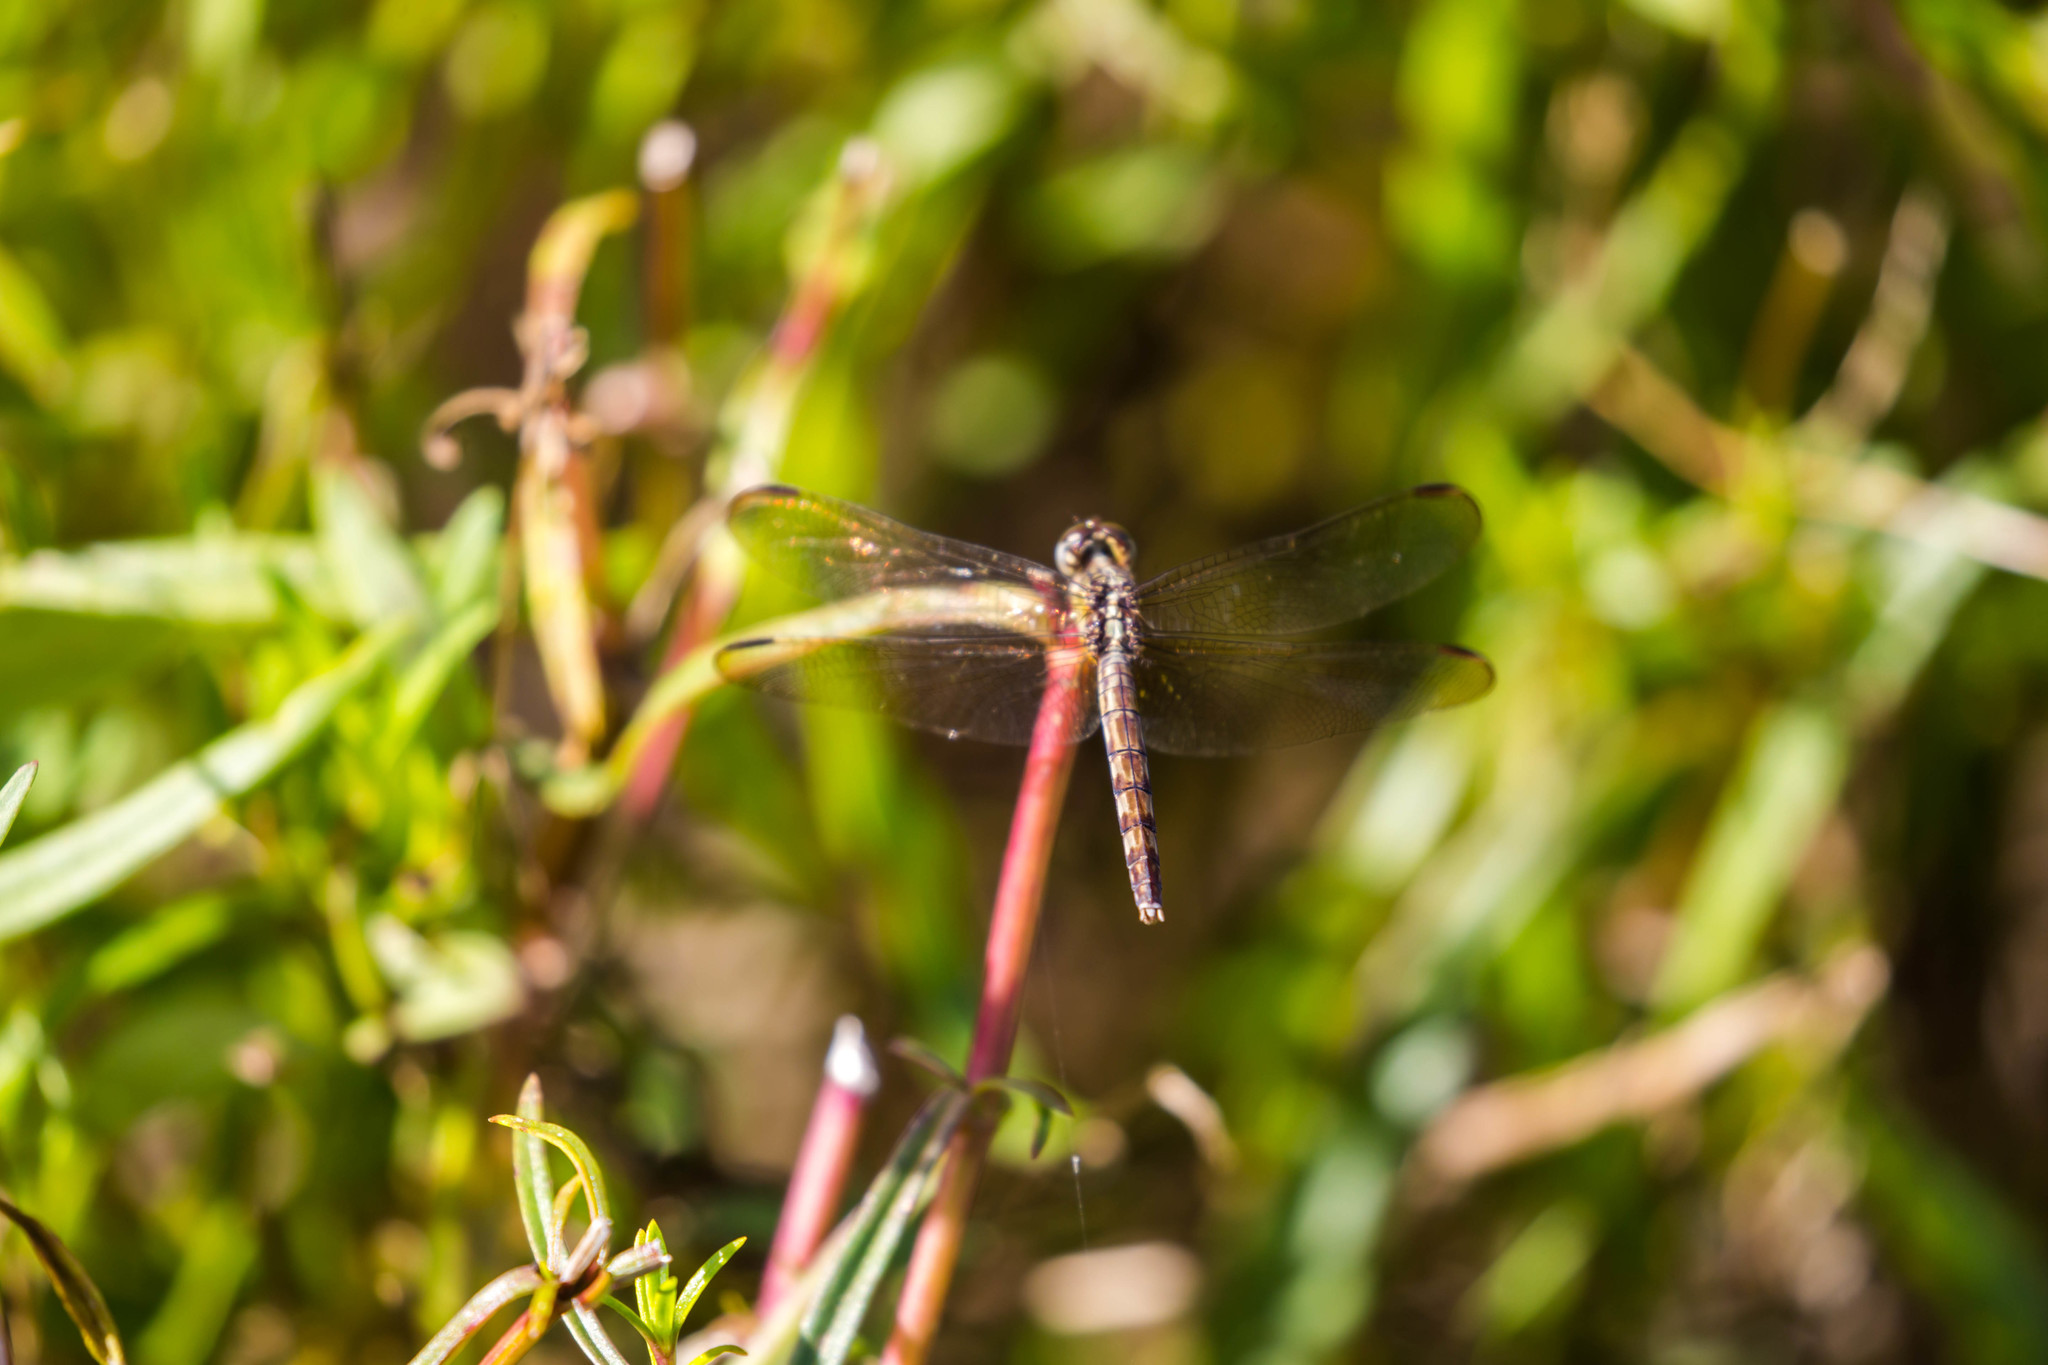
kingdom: Animalia
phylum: Arthropoda
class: Insecta
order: Odonata
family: Libellulidae
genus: Erythrodiplax
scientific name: Erythrodiplax umbrata
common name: Band-winged dragonlet
